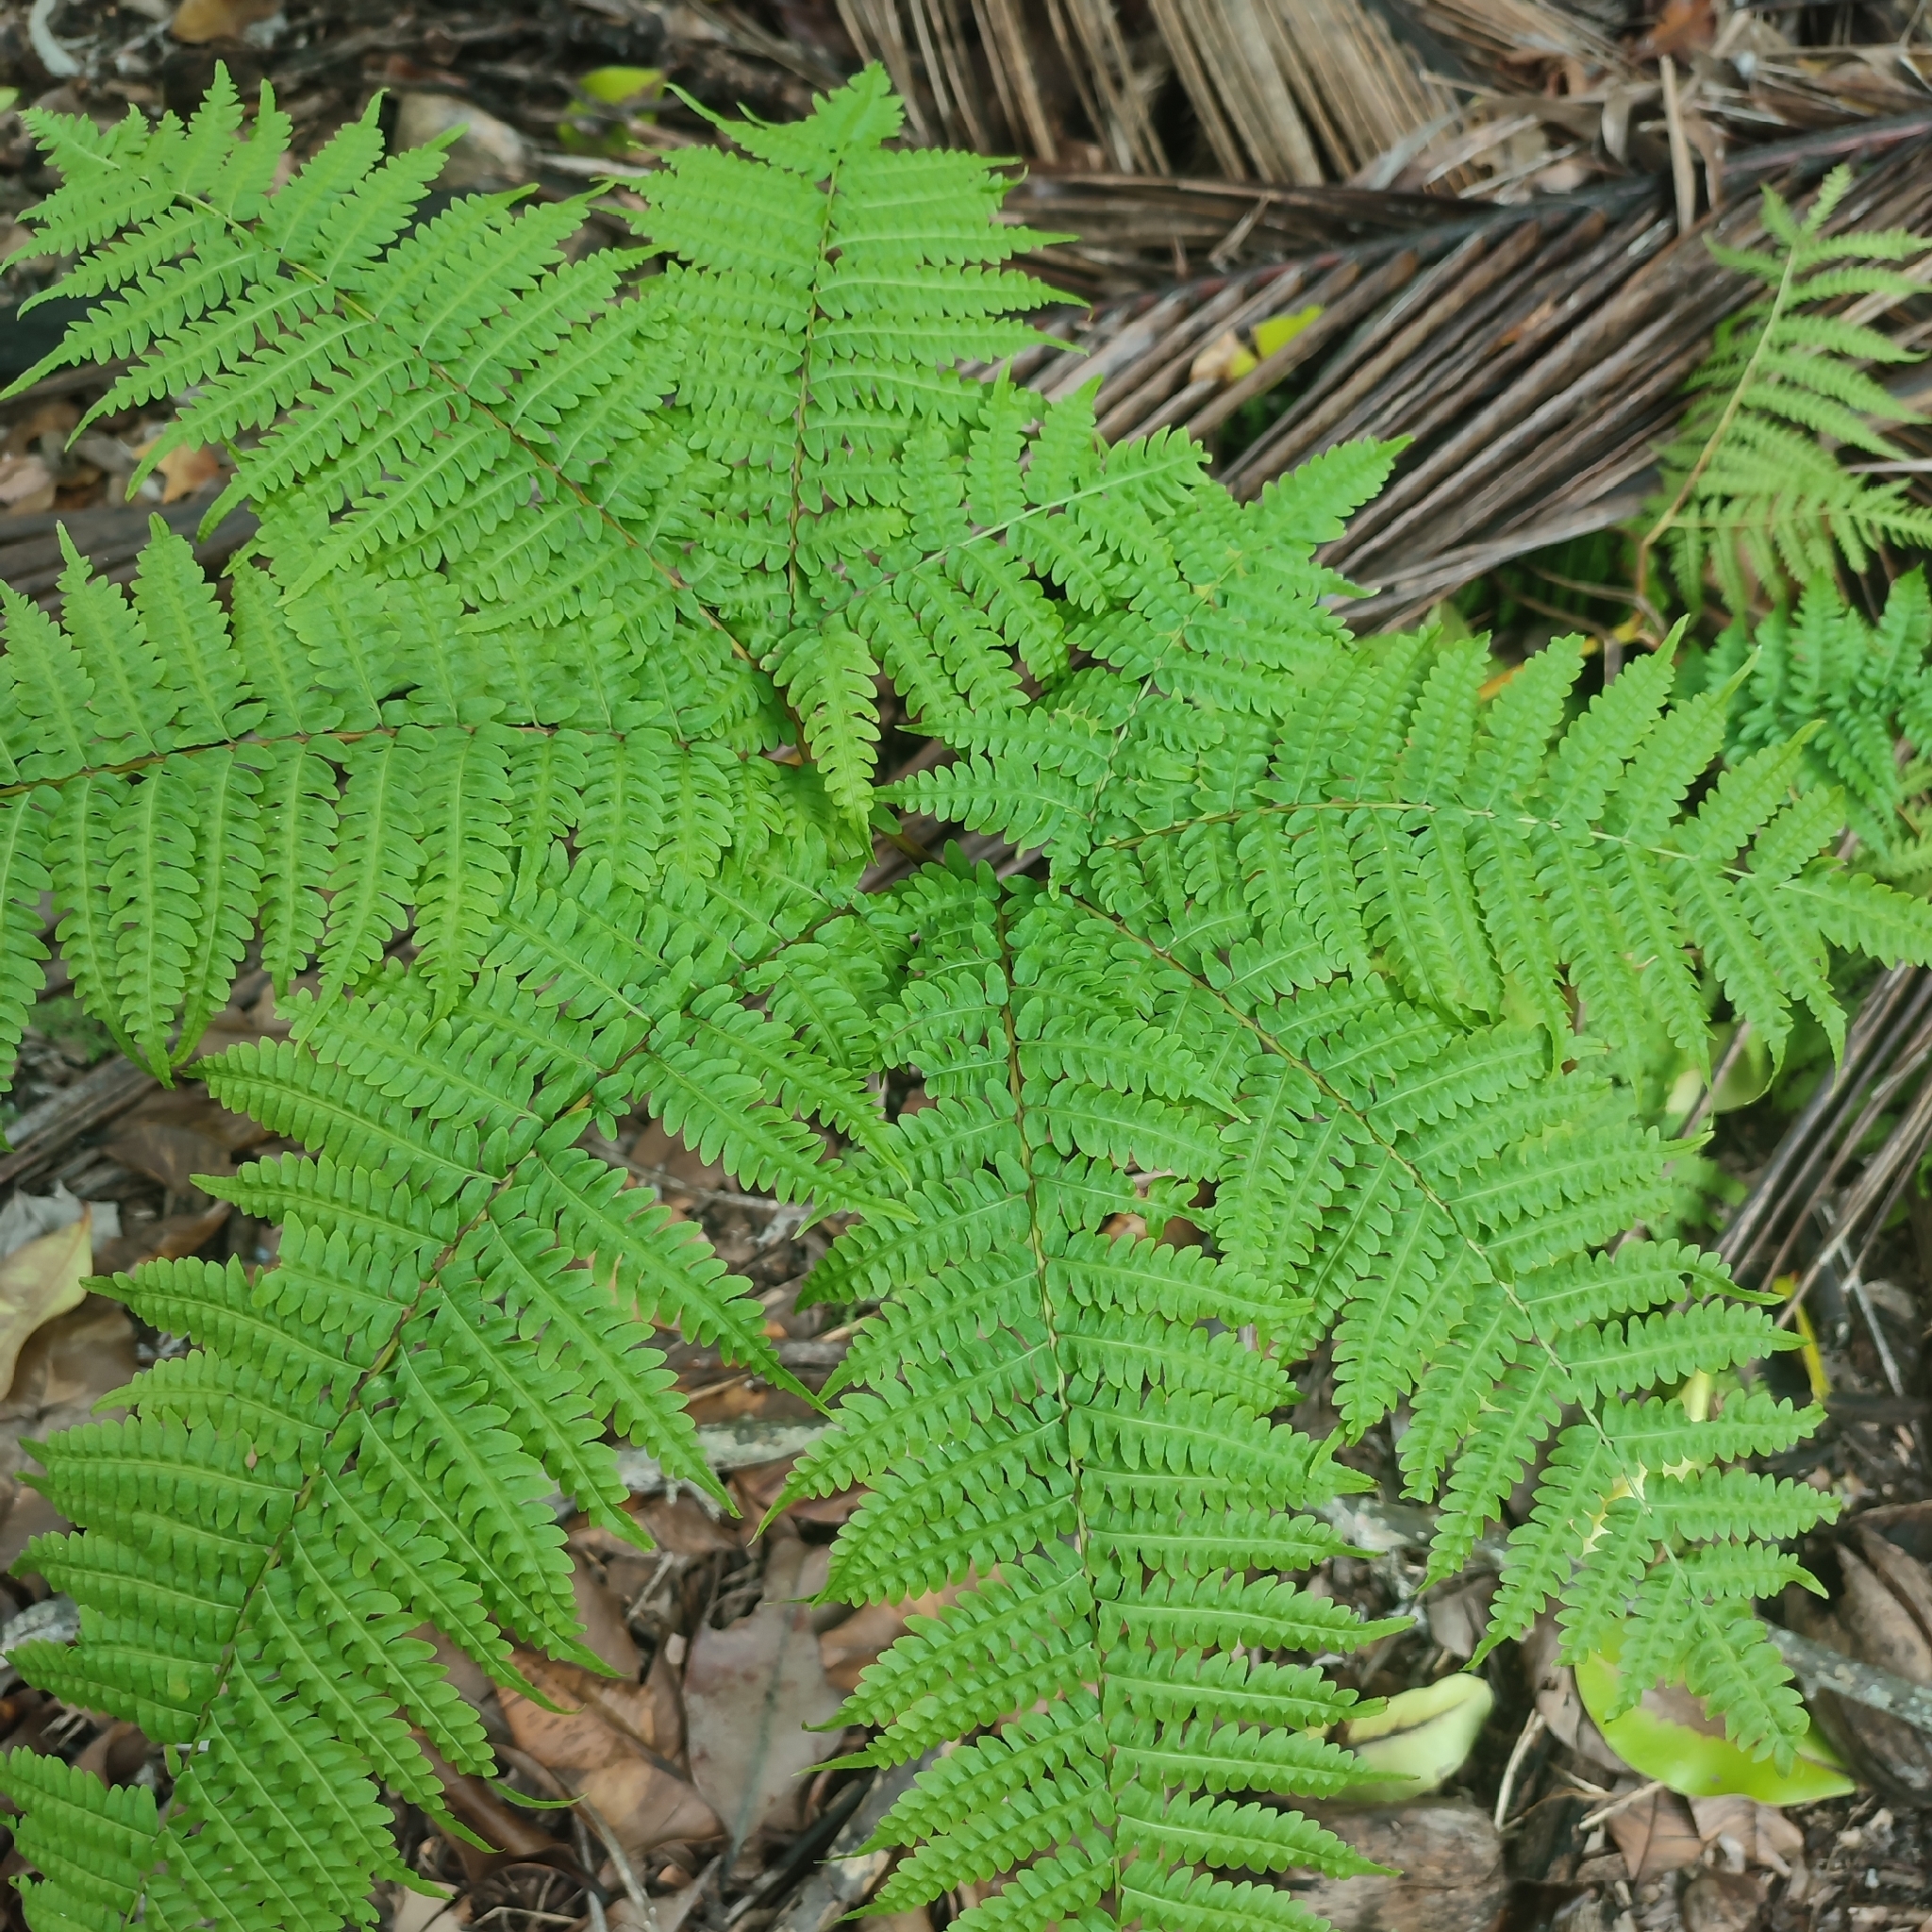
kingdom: Plantae
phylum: Tracheophyta
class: Polypodiopsida
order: Polypodiales
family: Pteridaceae
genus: Pteris
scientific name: Pteris tripartita
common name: Giant brake
